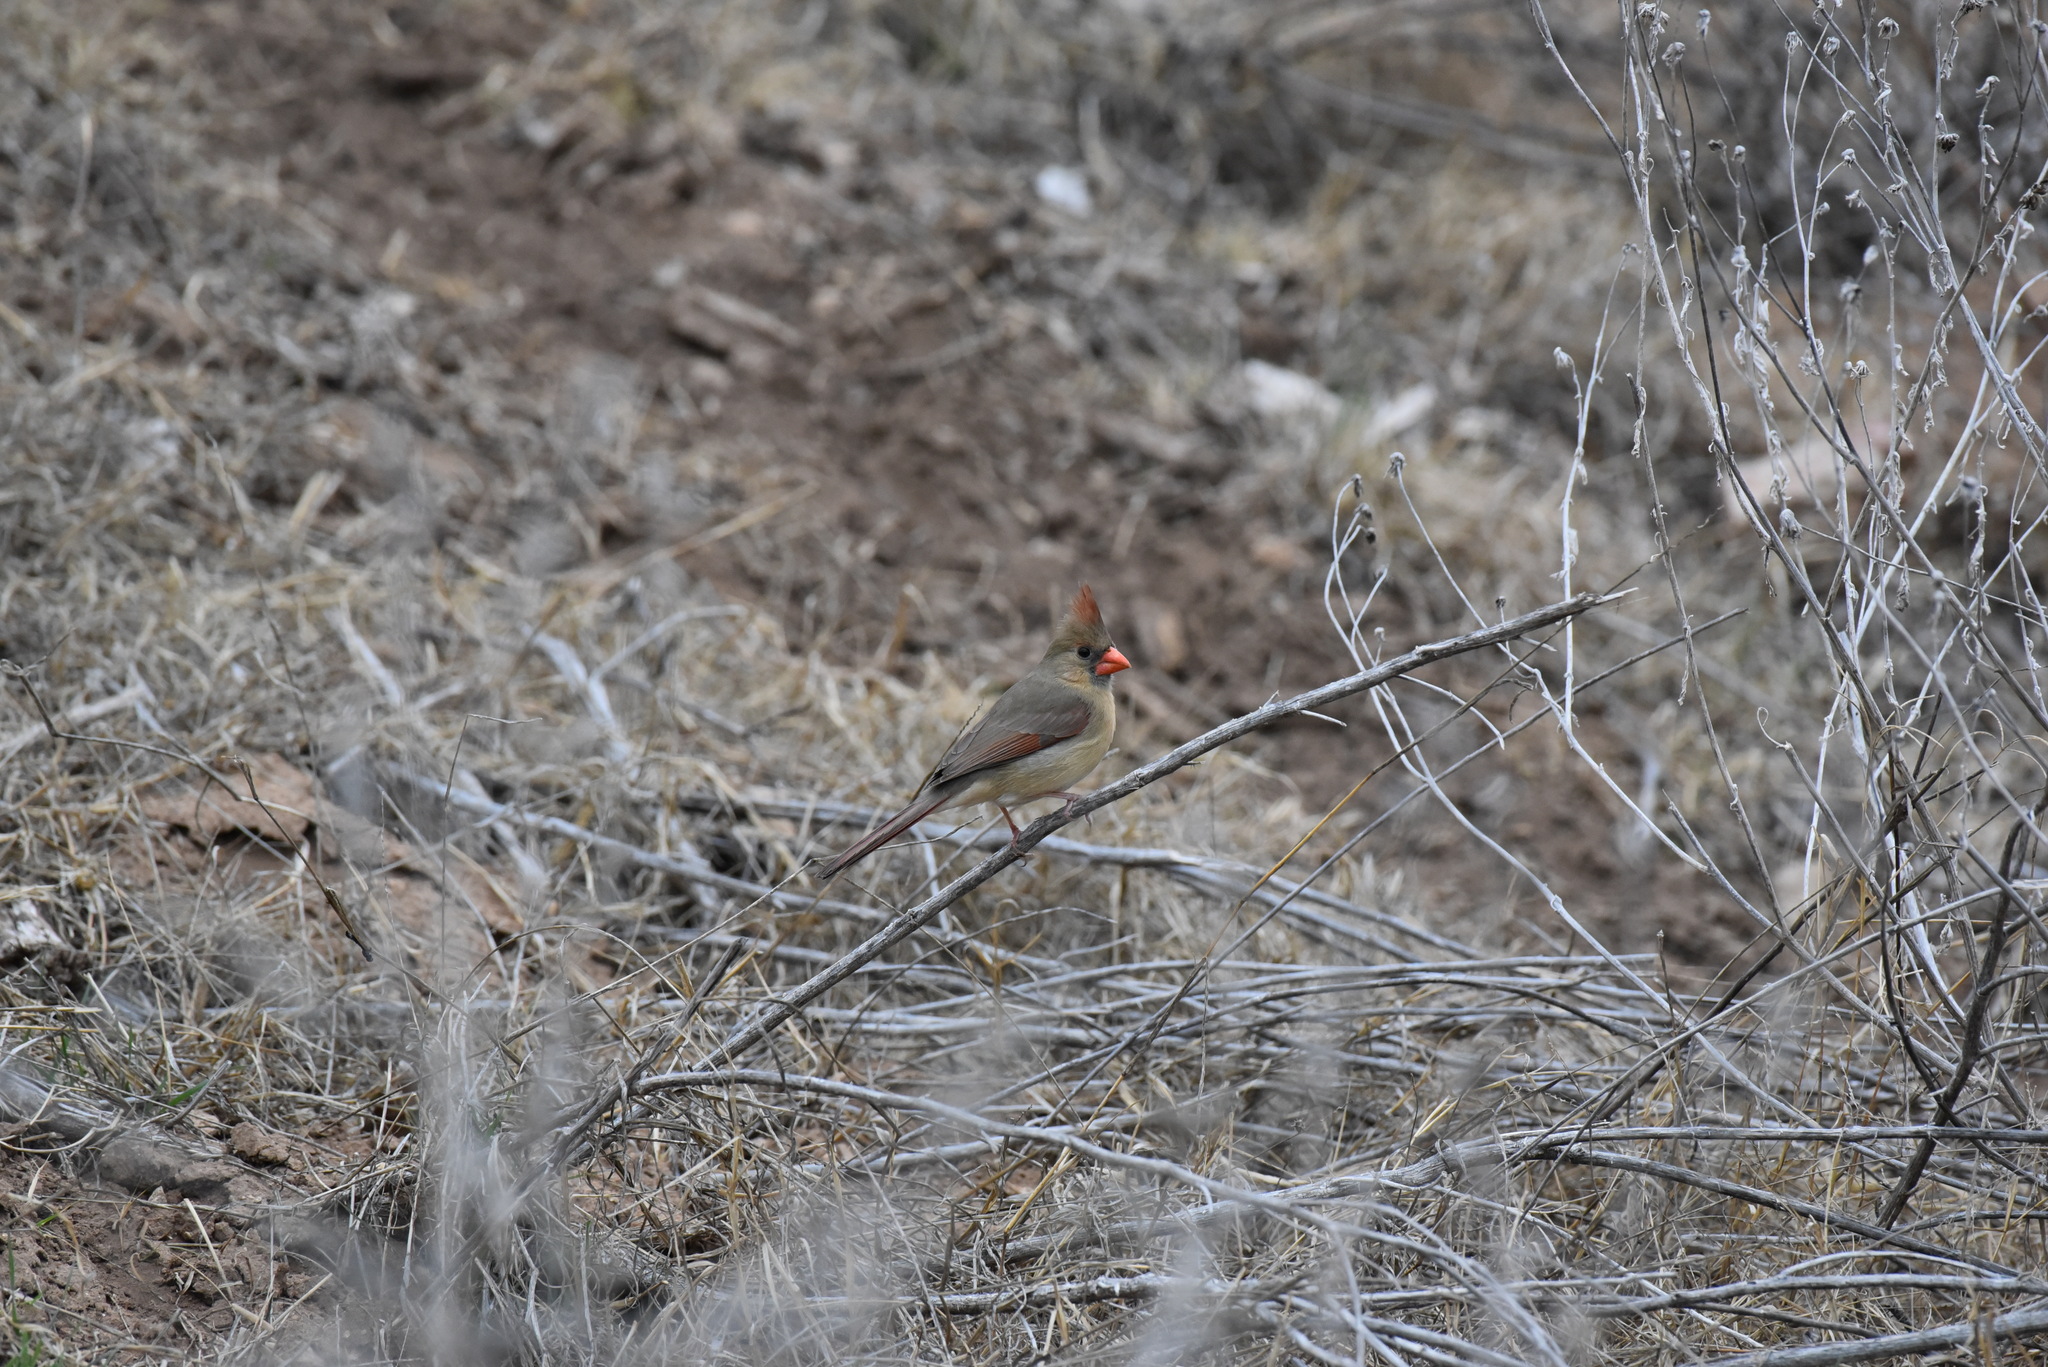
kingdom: Animalia
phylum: Chordata
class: Aves
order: Passeriformes
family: Cardinalidae
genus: Cardinalis
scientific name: Cardinalis cardinalis
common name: Northern cardinal
